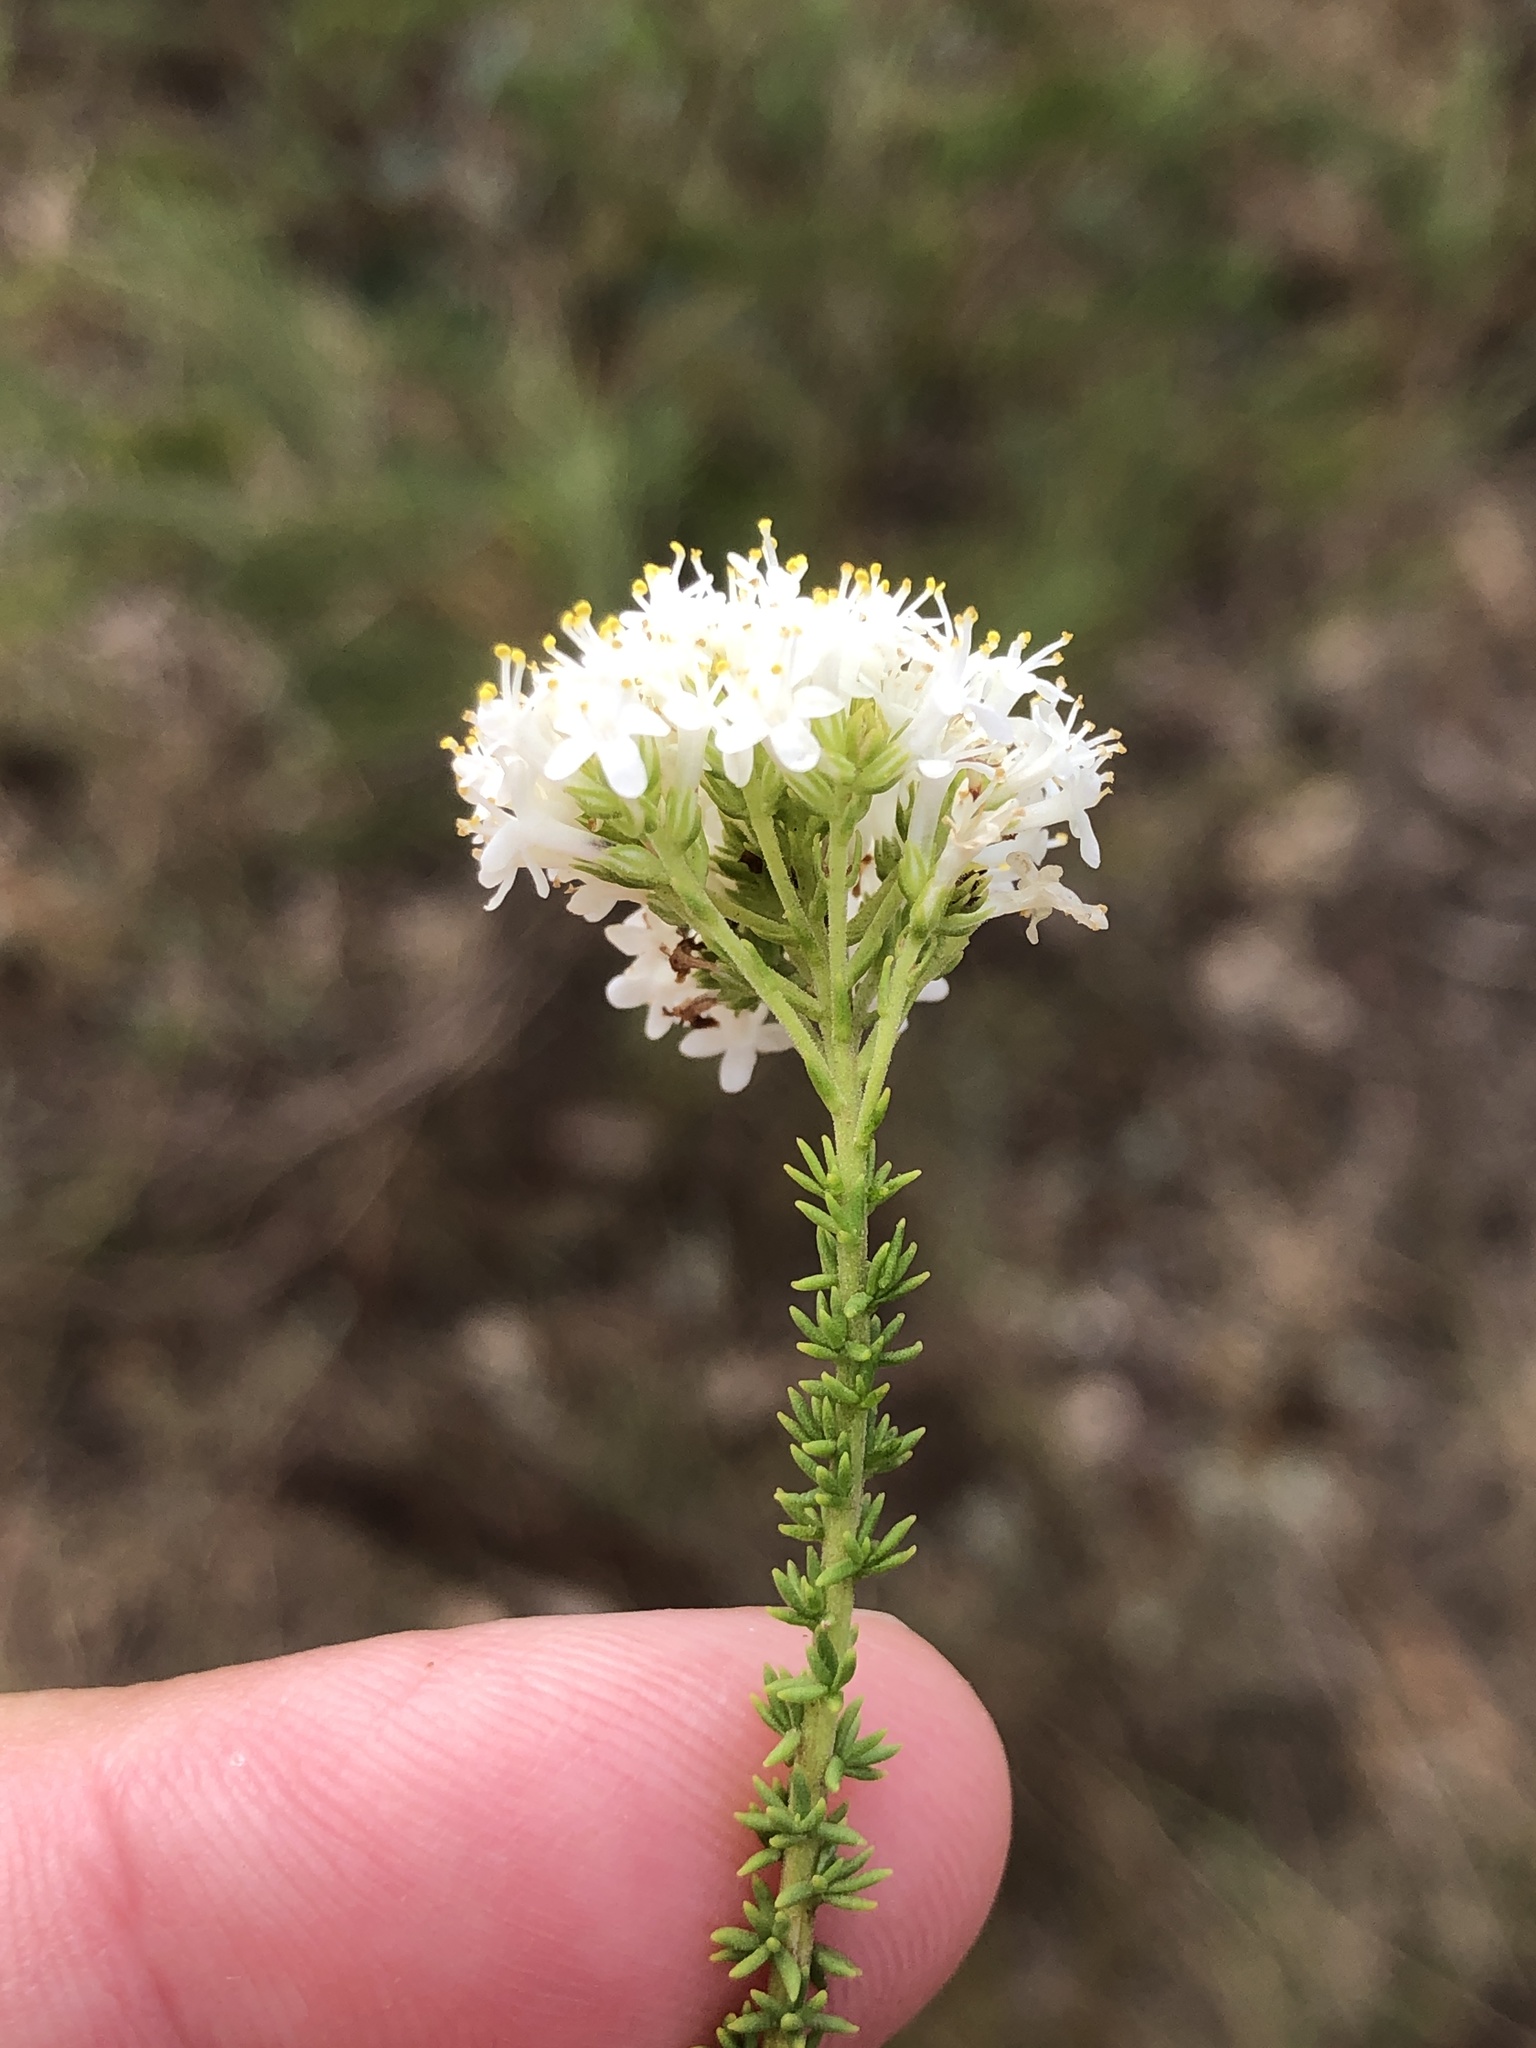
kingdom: Plantae
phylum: Tracheophyta
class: Magnoliopsida
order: Lamiales
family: Scrophulariaceae
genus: Selago
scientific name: Selago dolosa
